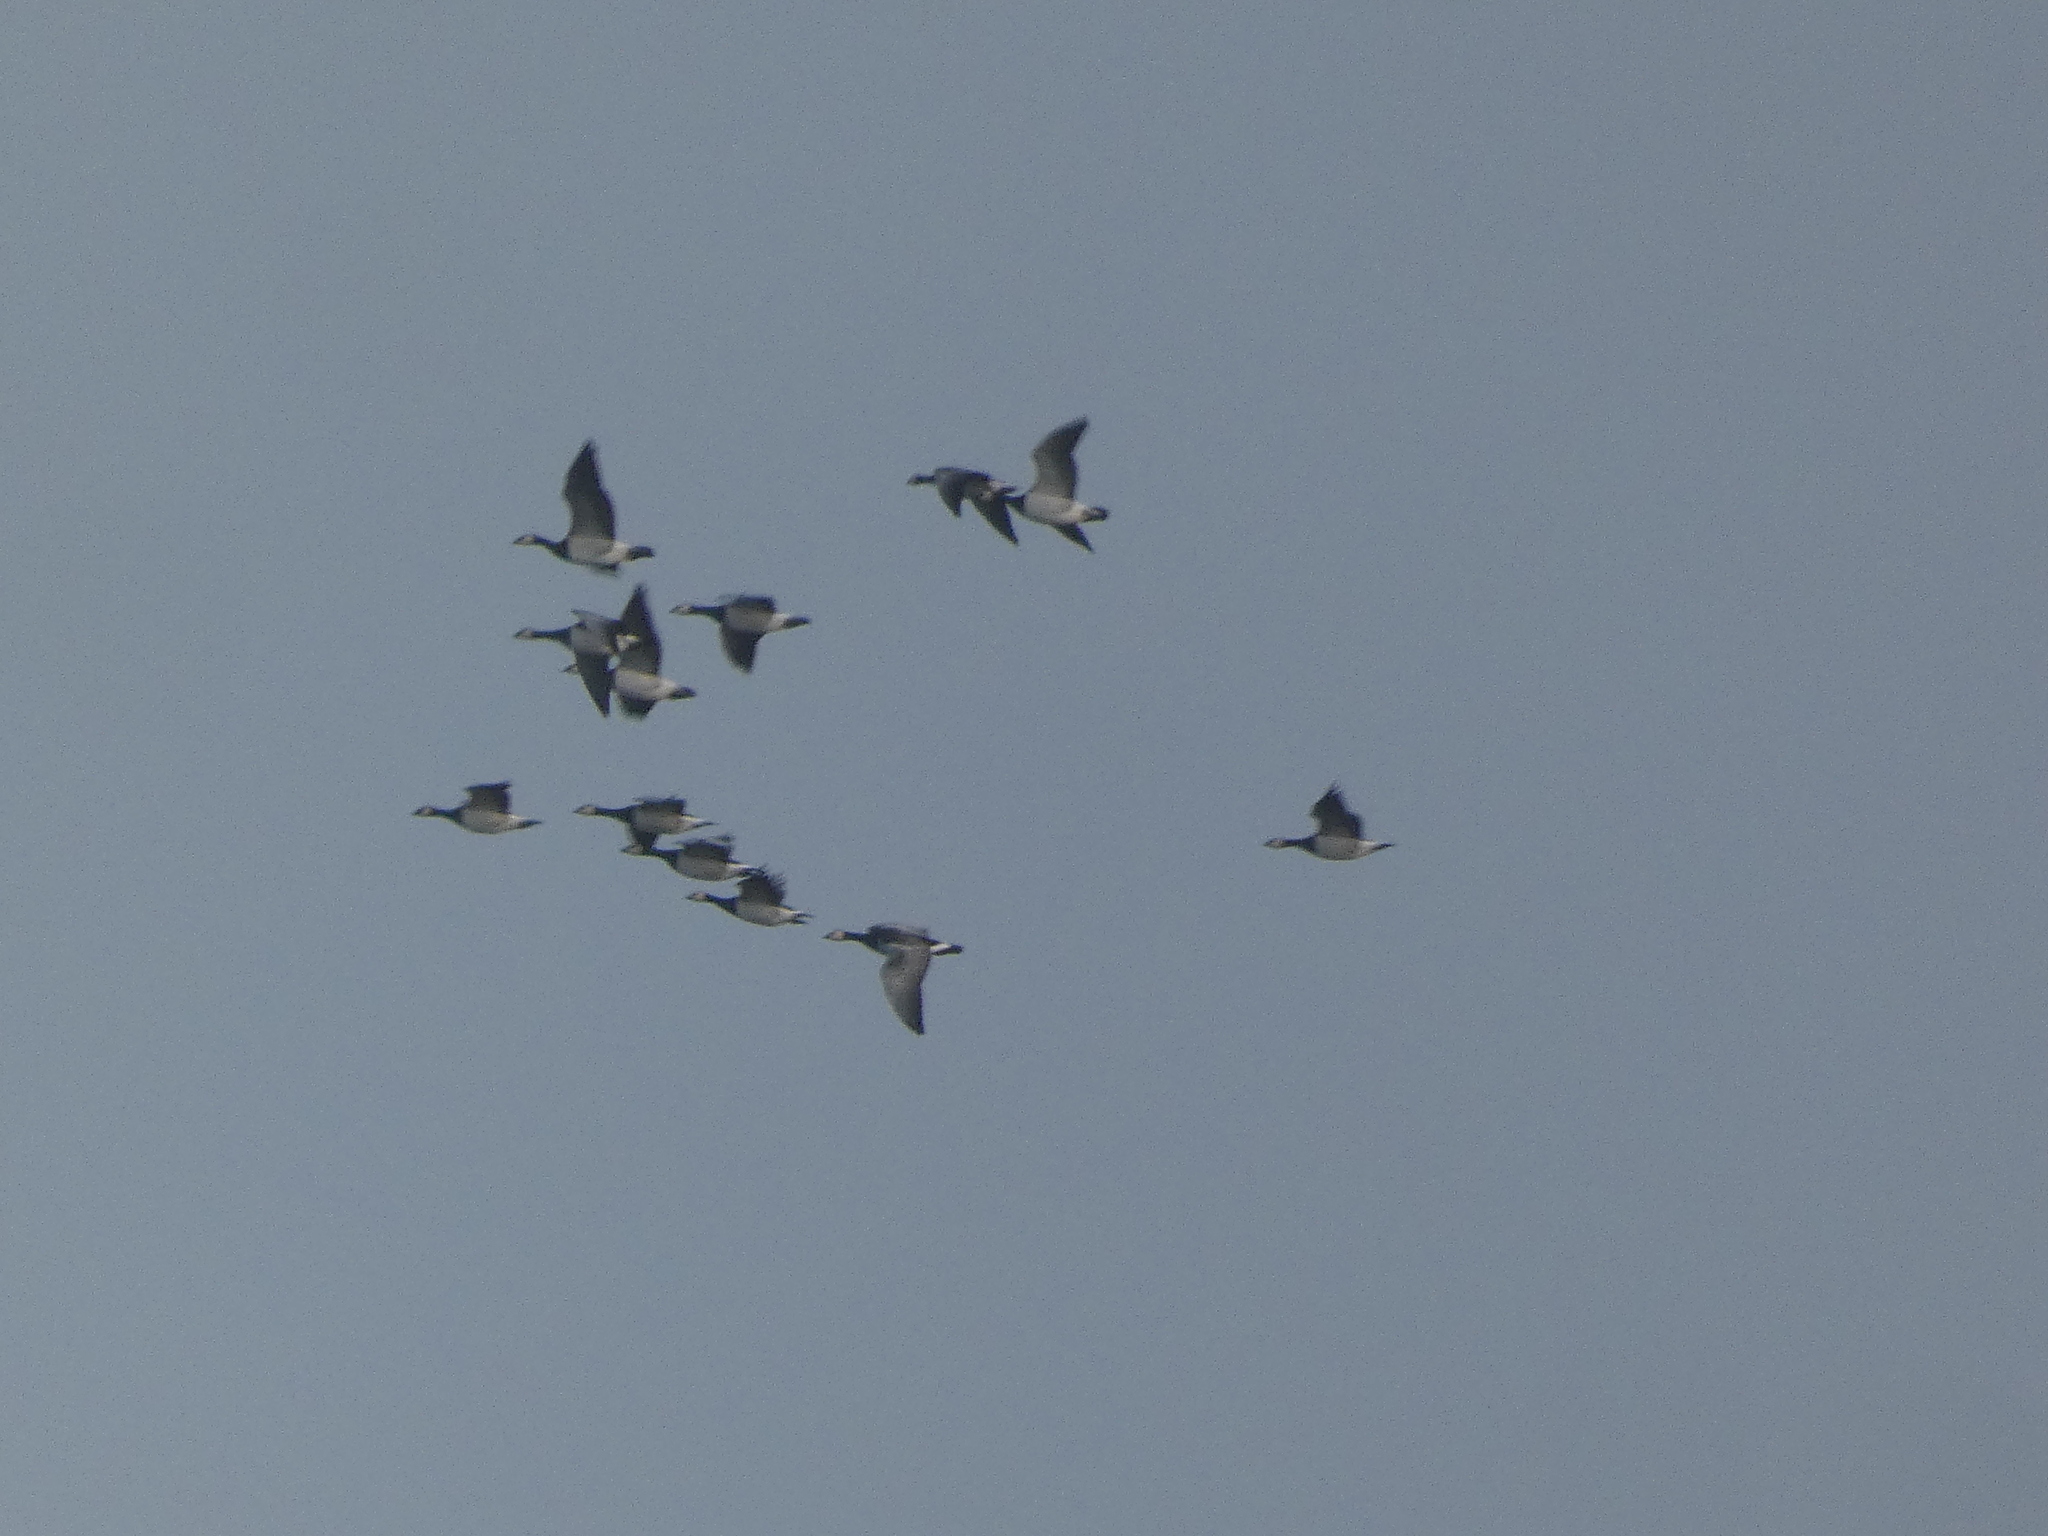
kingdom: Animalia
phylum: Chordata
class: Aves
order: Anseriformes
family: Anatidae
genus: Branta
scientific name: Branta leucopsis
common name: Barnacle goose
